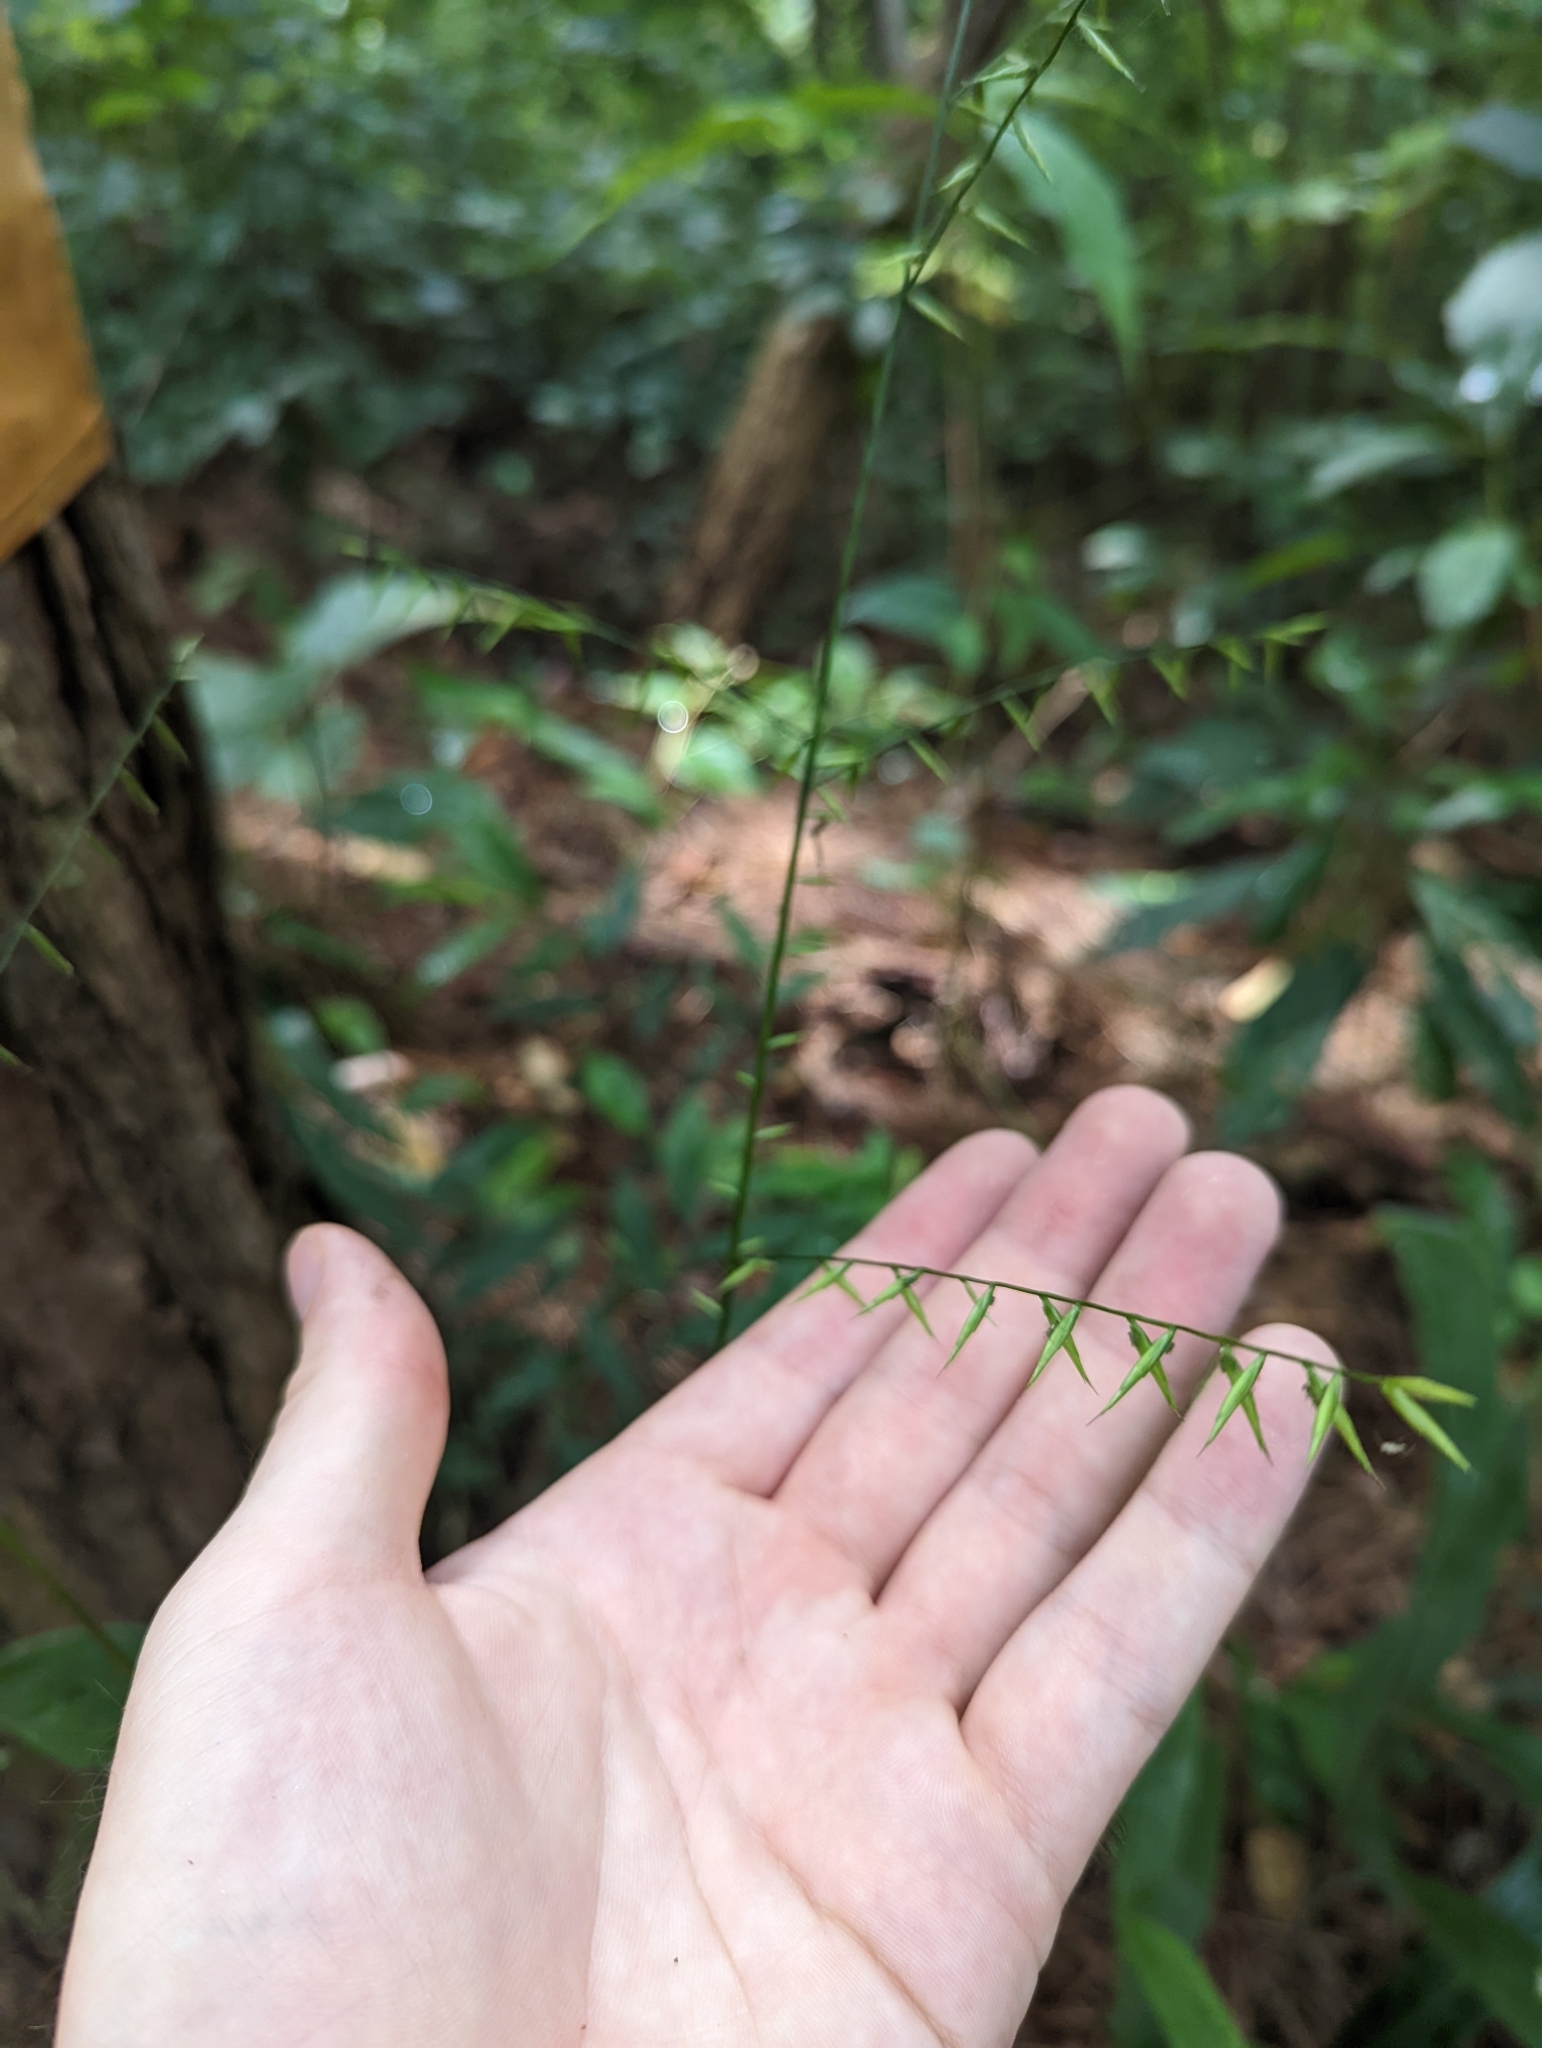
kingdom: Plantae
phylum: Tracheophyta
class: Liliopsida
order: Poales
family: Poaceae
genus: Lophatherum
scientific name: Lophatherum gracile
